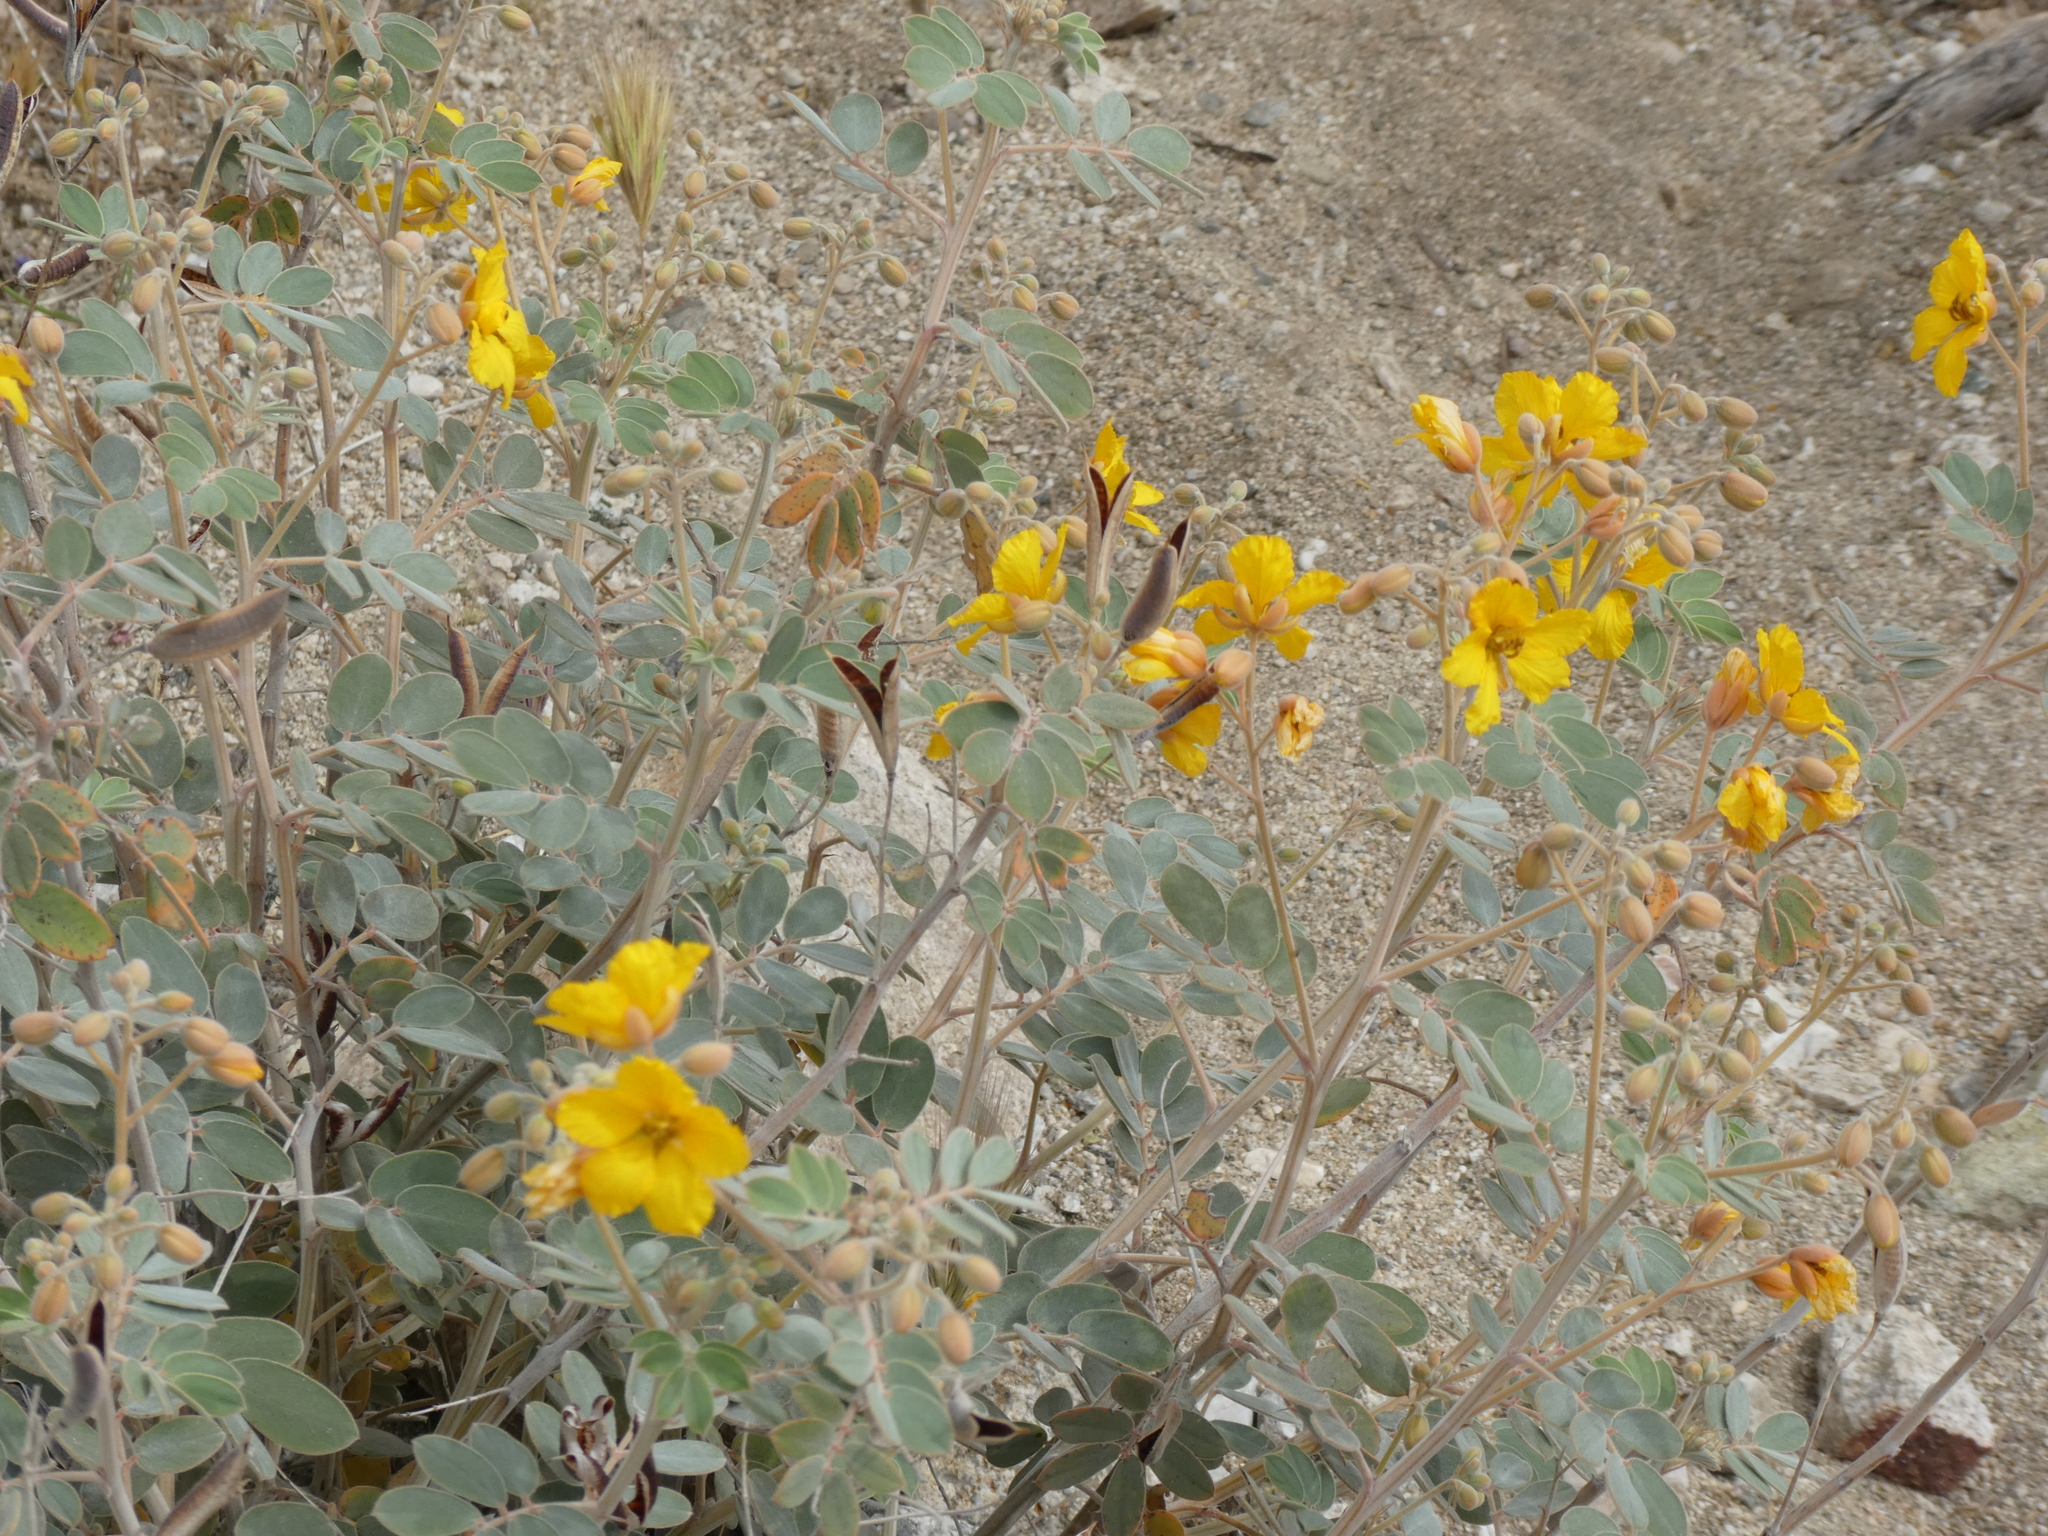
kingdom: Plantae
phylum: Tracheophyta
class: Magnoliopsida
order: Fabales
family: Fabaceae
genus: Senna
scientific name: Senna covesii
